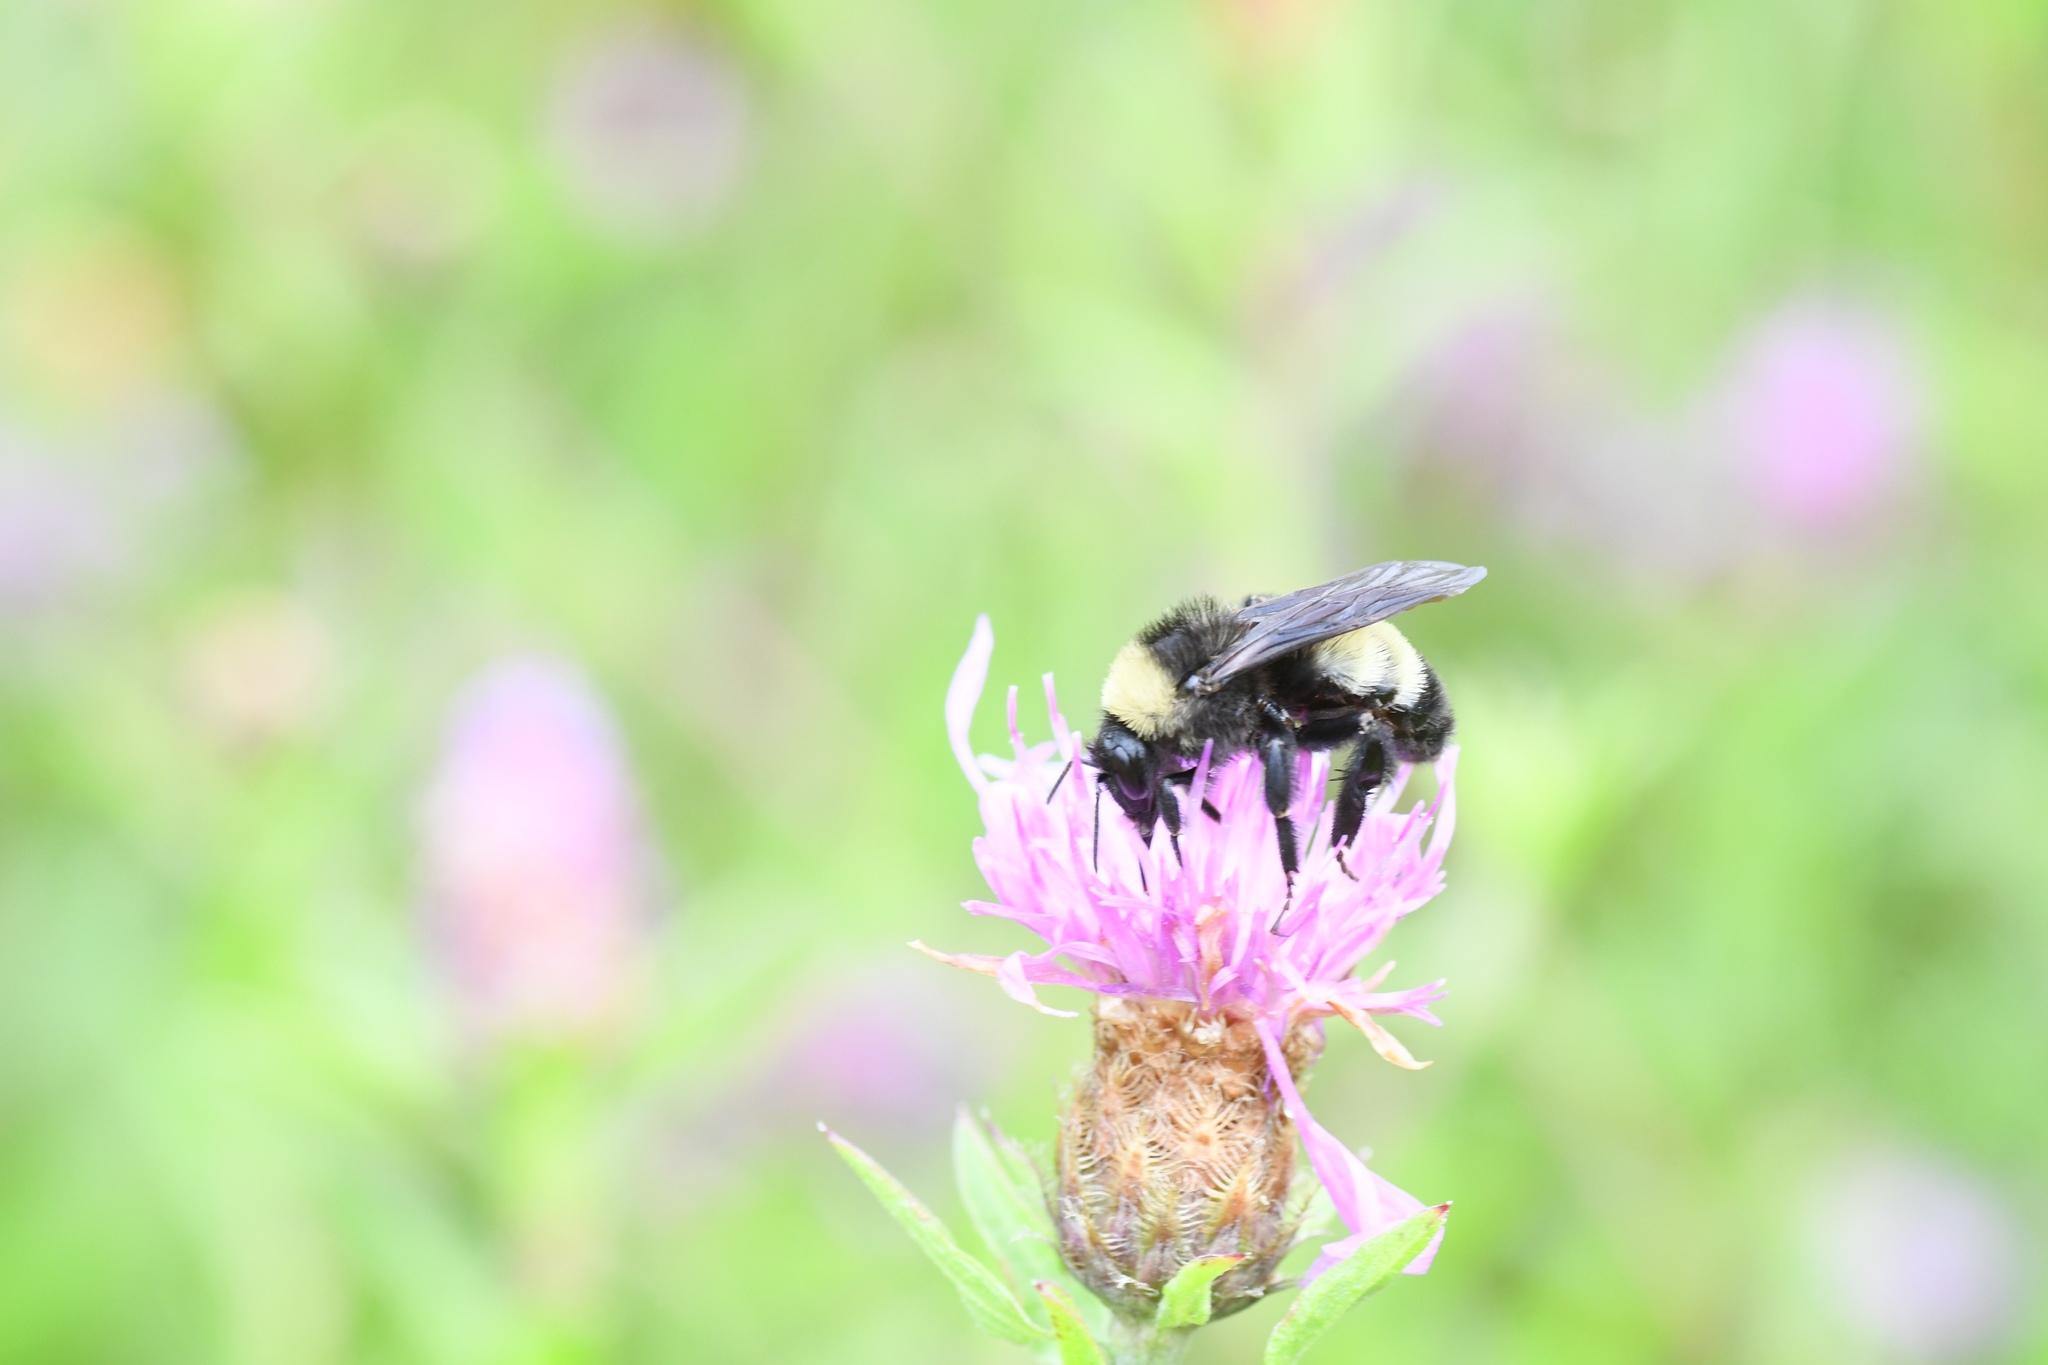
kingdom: Animalia
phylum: Arthropoda
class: Insecta
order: Hymenoptera
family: Apidae
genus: Bombus
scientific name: Bombus pensylvanicus
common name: Bumble bee
